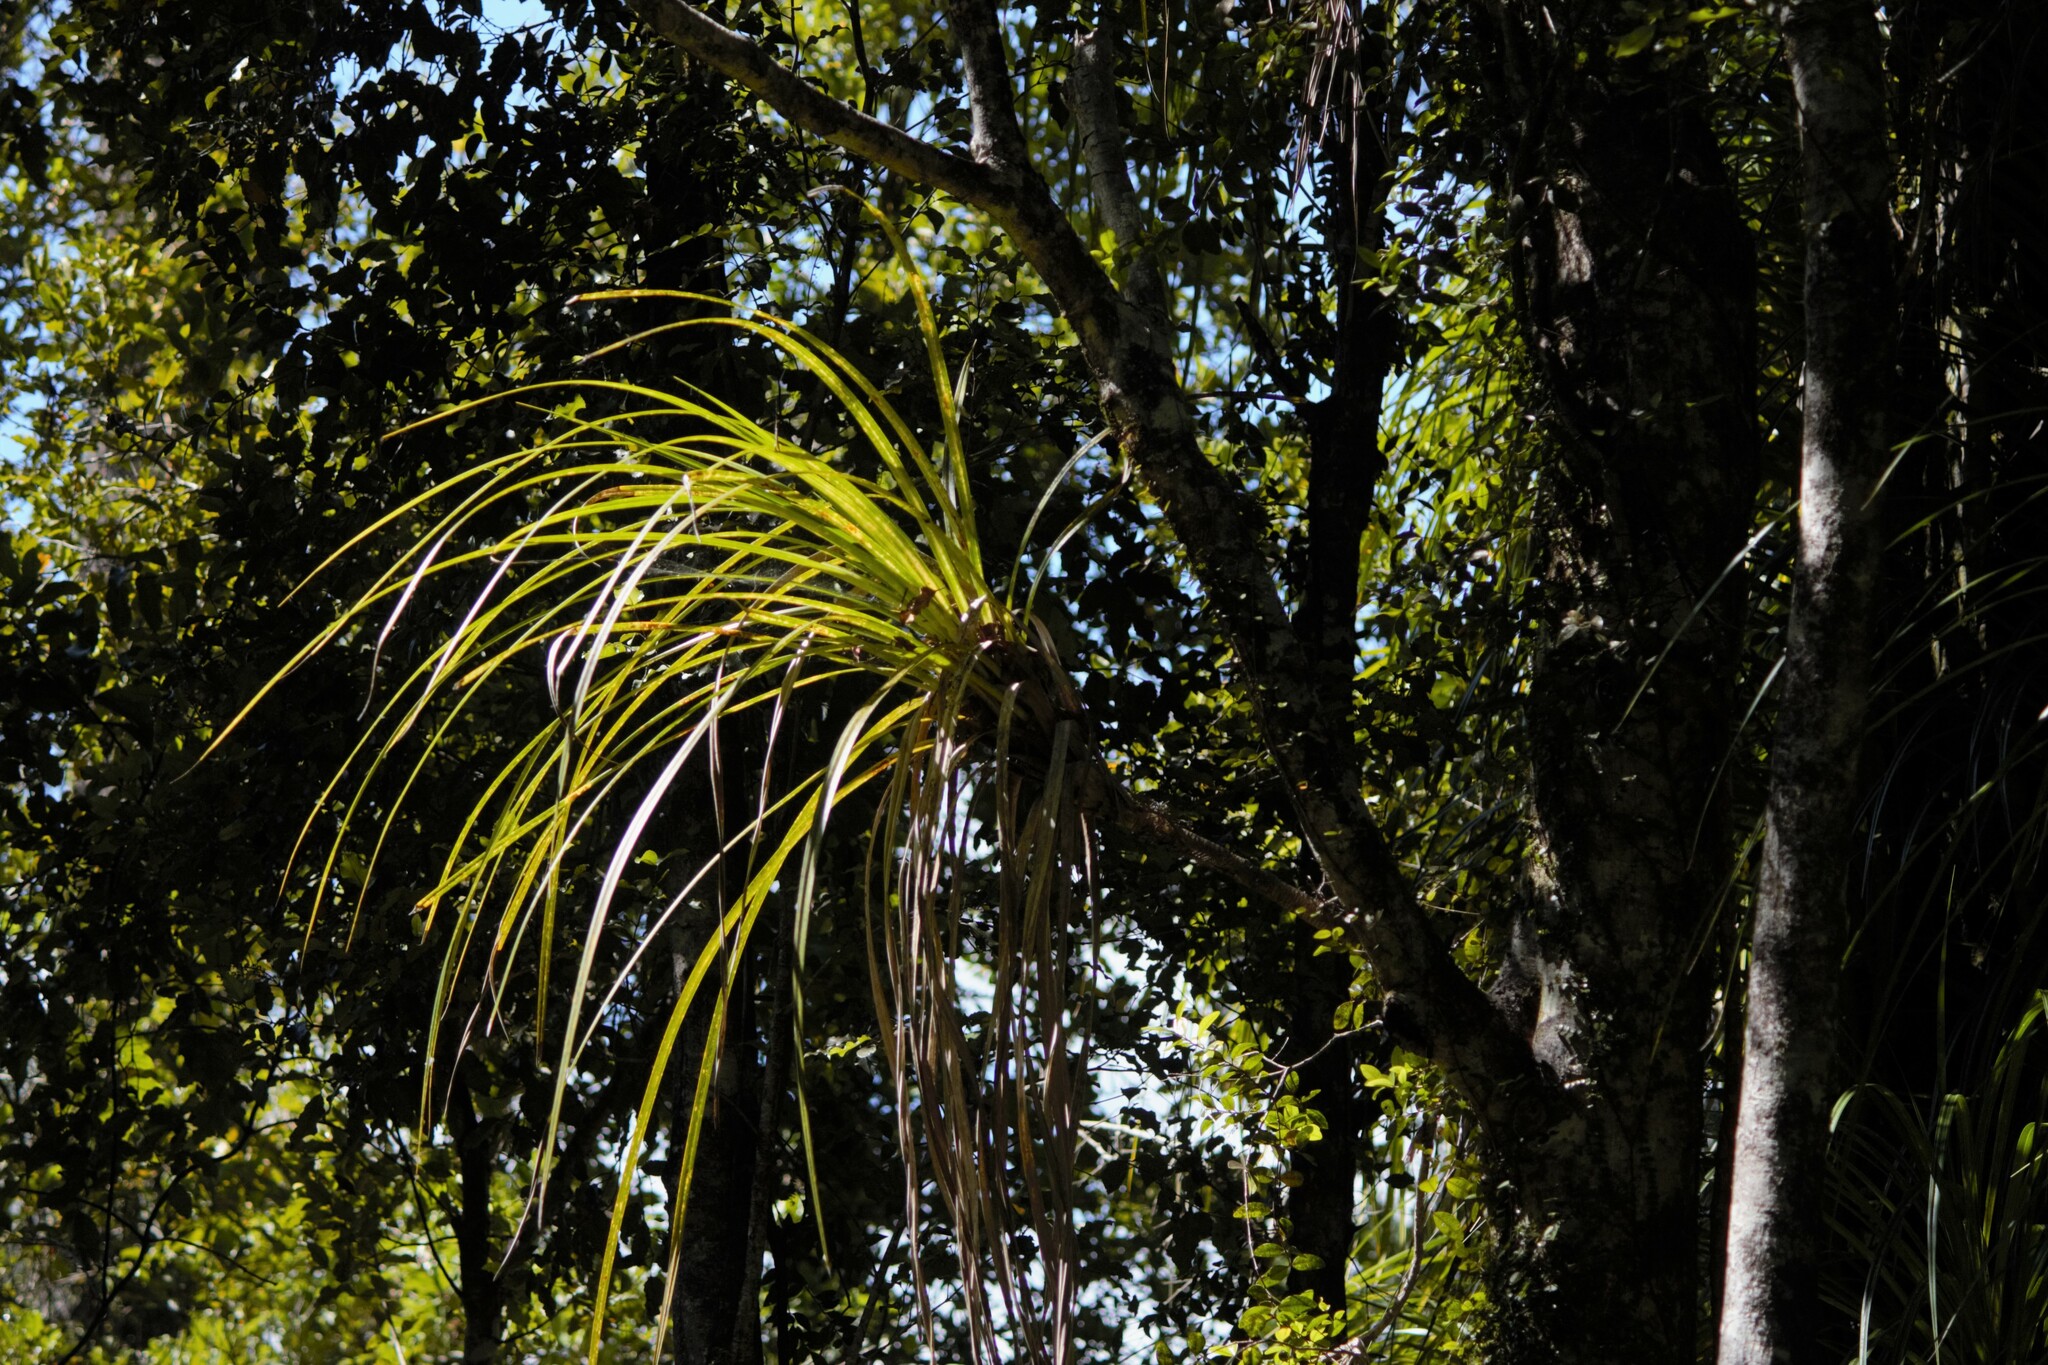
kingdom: Plantae
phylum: Tracheophyta
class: Liliopsida
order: Pandanales
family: Pandanaceae
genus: Freycinetia
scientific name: Freycinetia banksii
